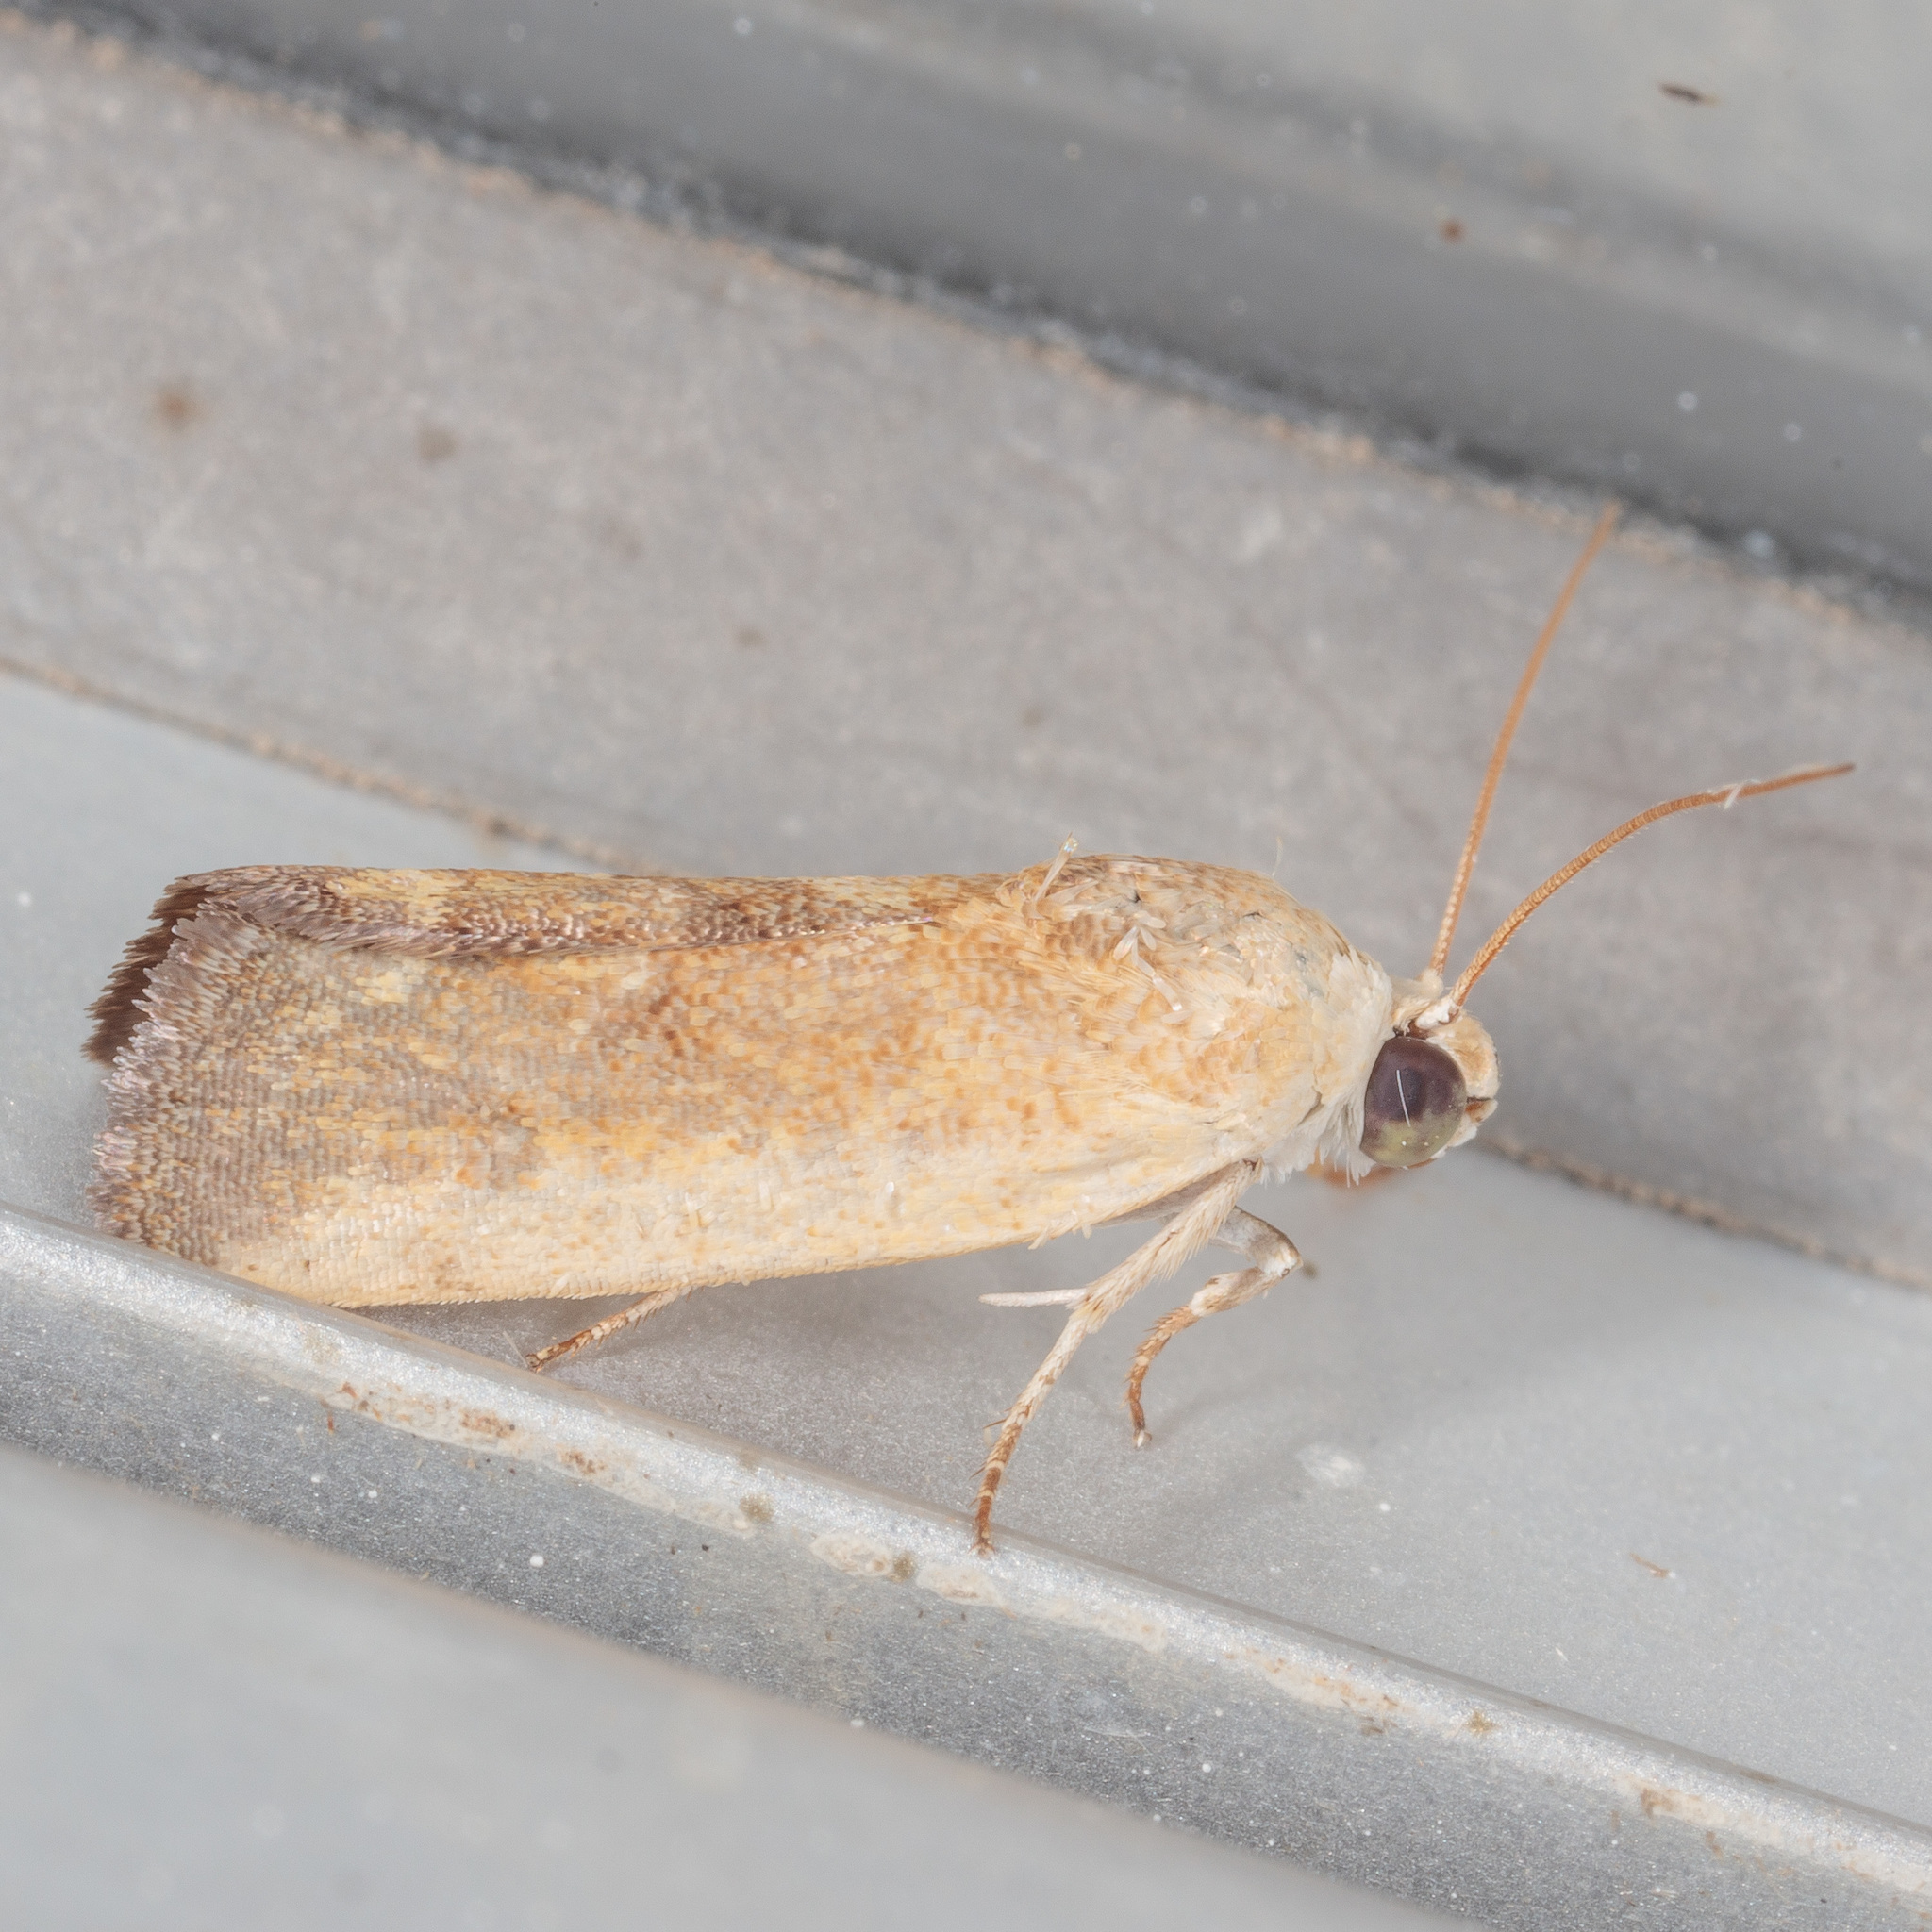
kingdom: Animalia
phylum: Arthropoda
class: Insecta
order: Lepidoptera
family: Noctuidae
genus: Acontia
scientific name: Acontia fasciatella
